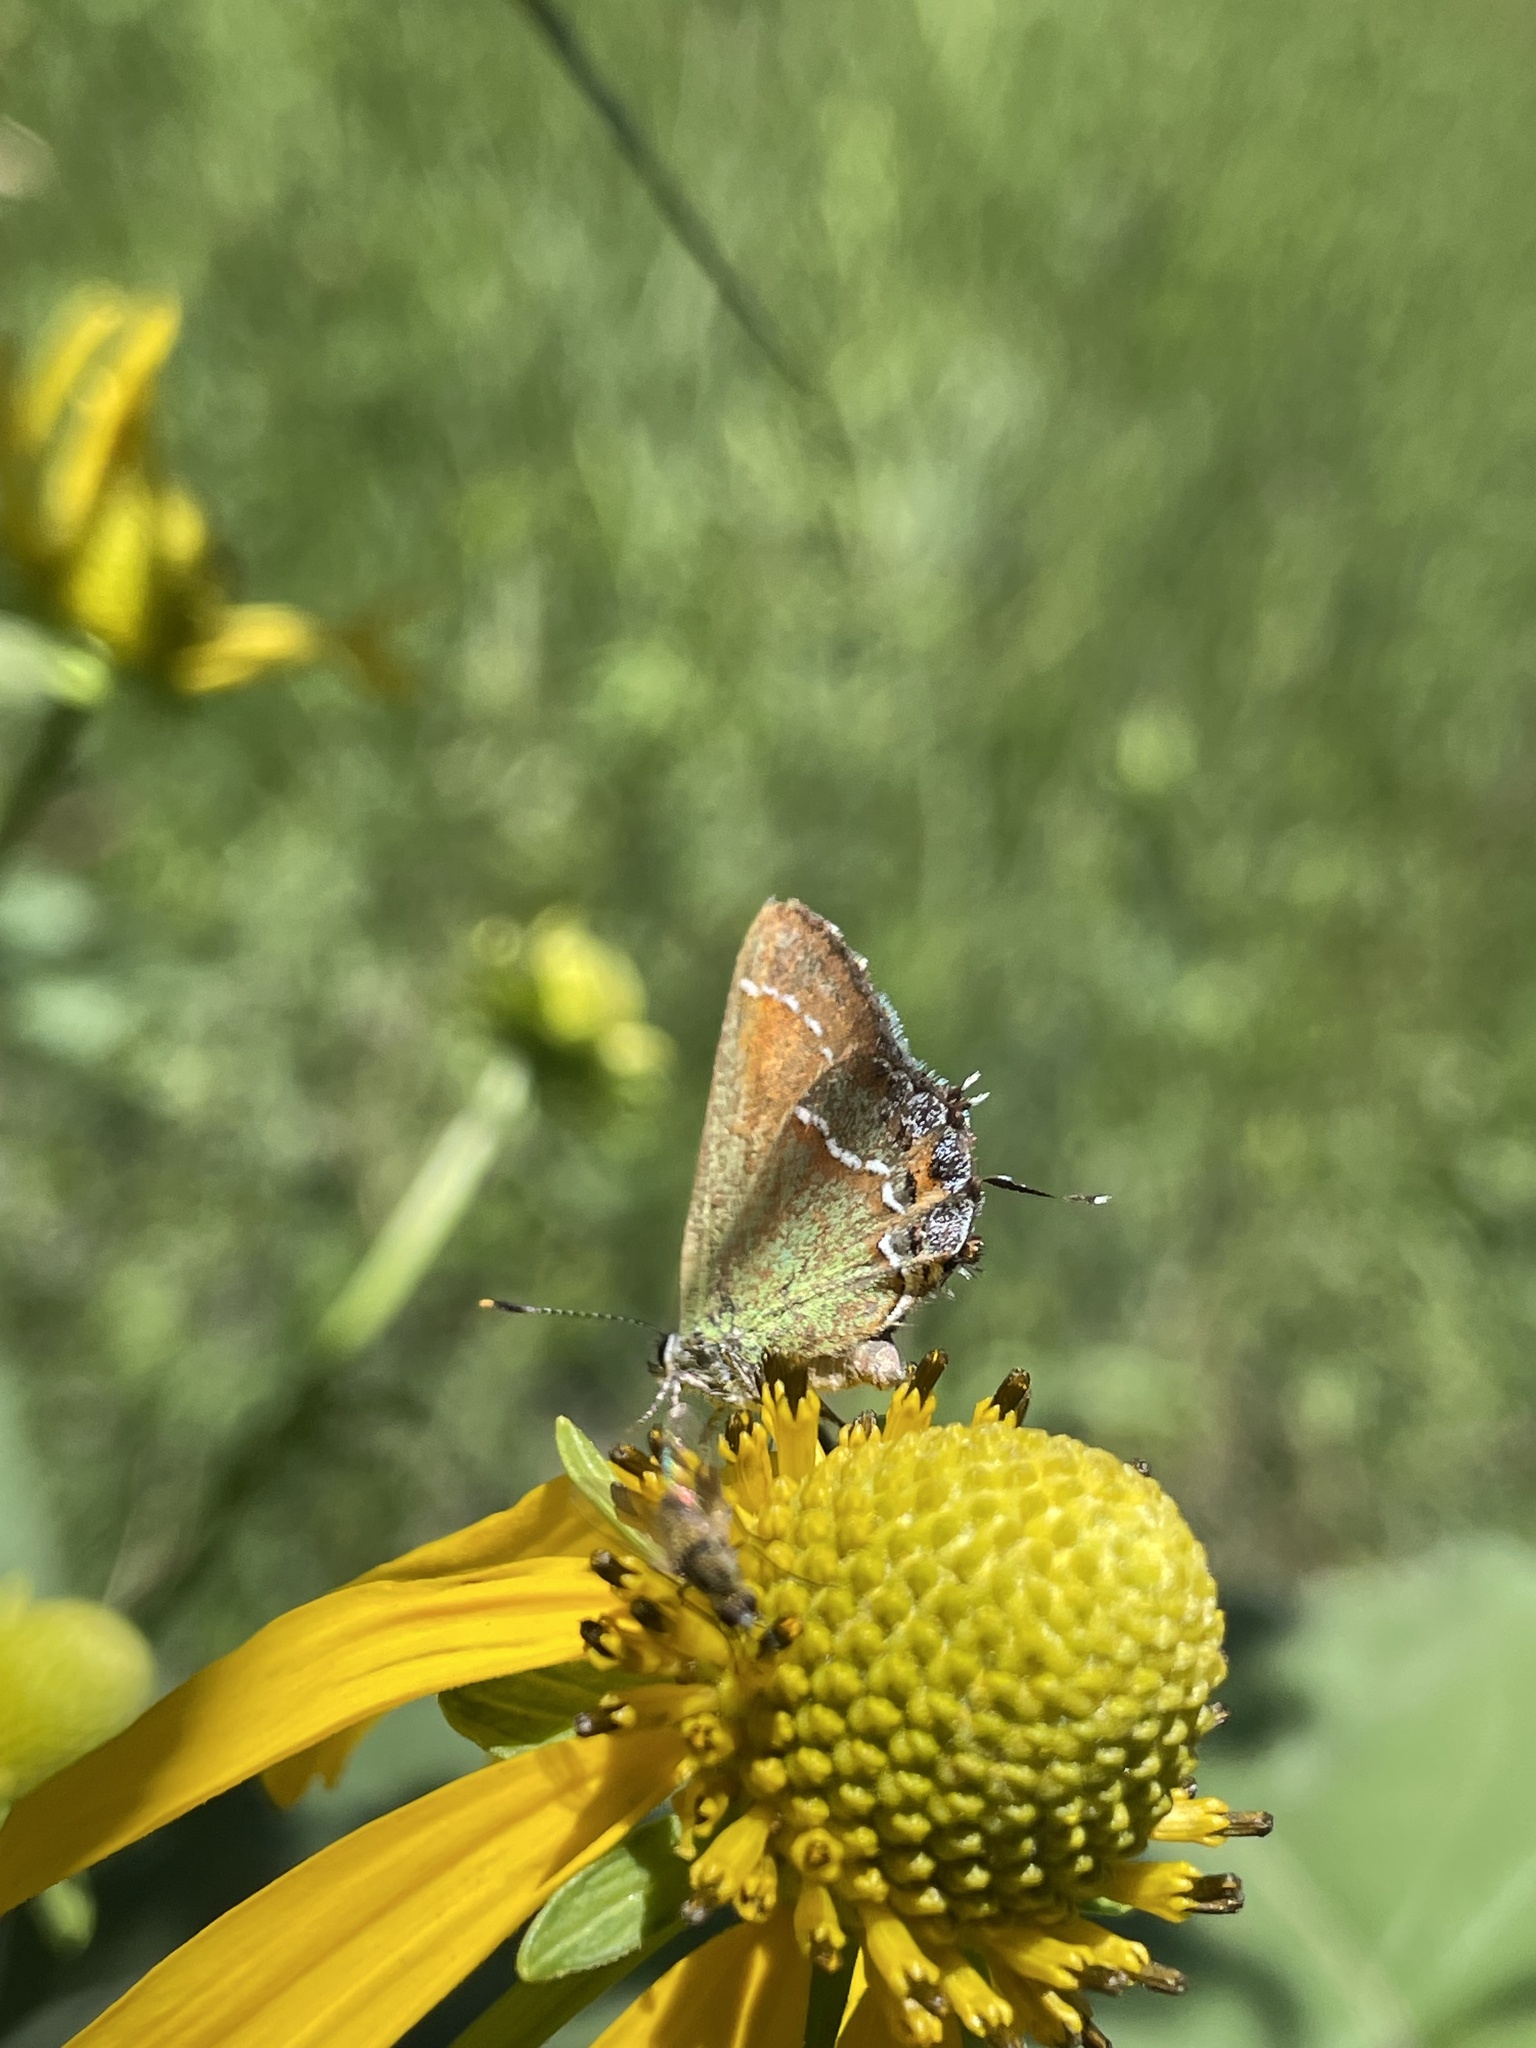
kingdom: Animalia
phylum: Arthropoda
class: Insecta
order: Lepidoptera
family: Lycaenidae
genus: Mitoura
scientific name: Mitoura gryneus
